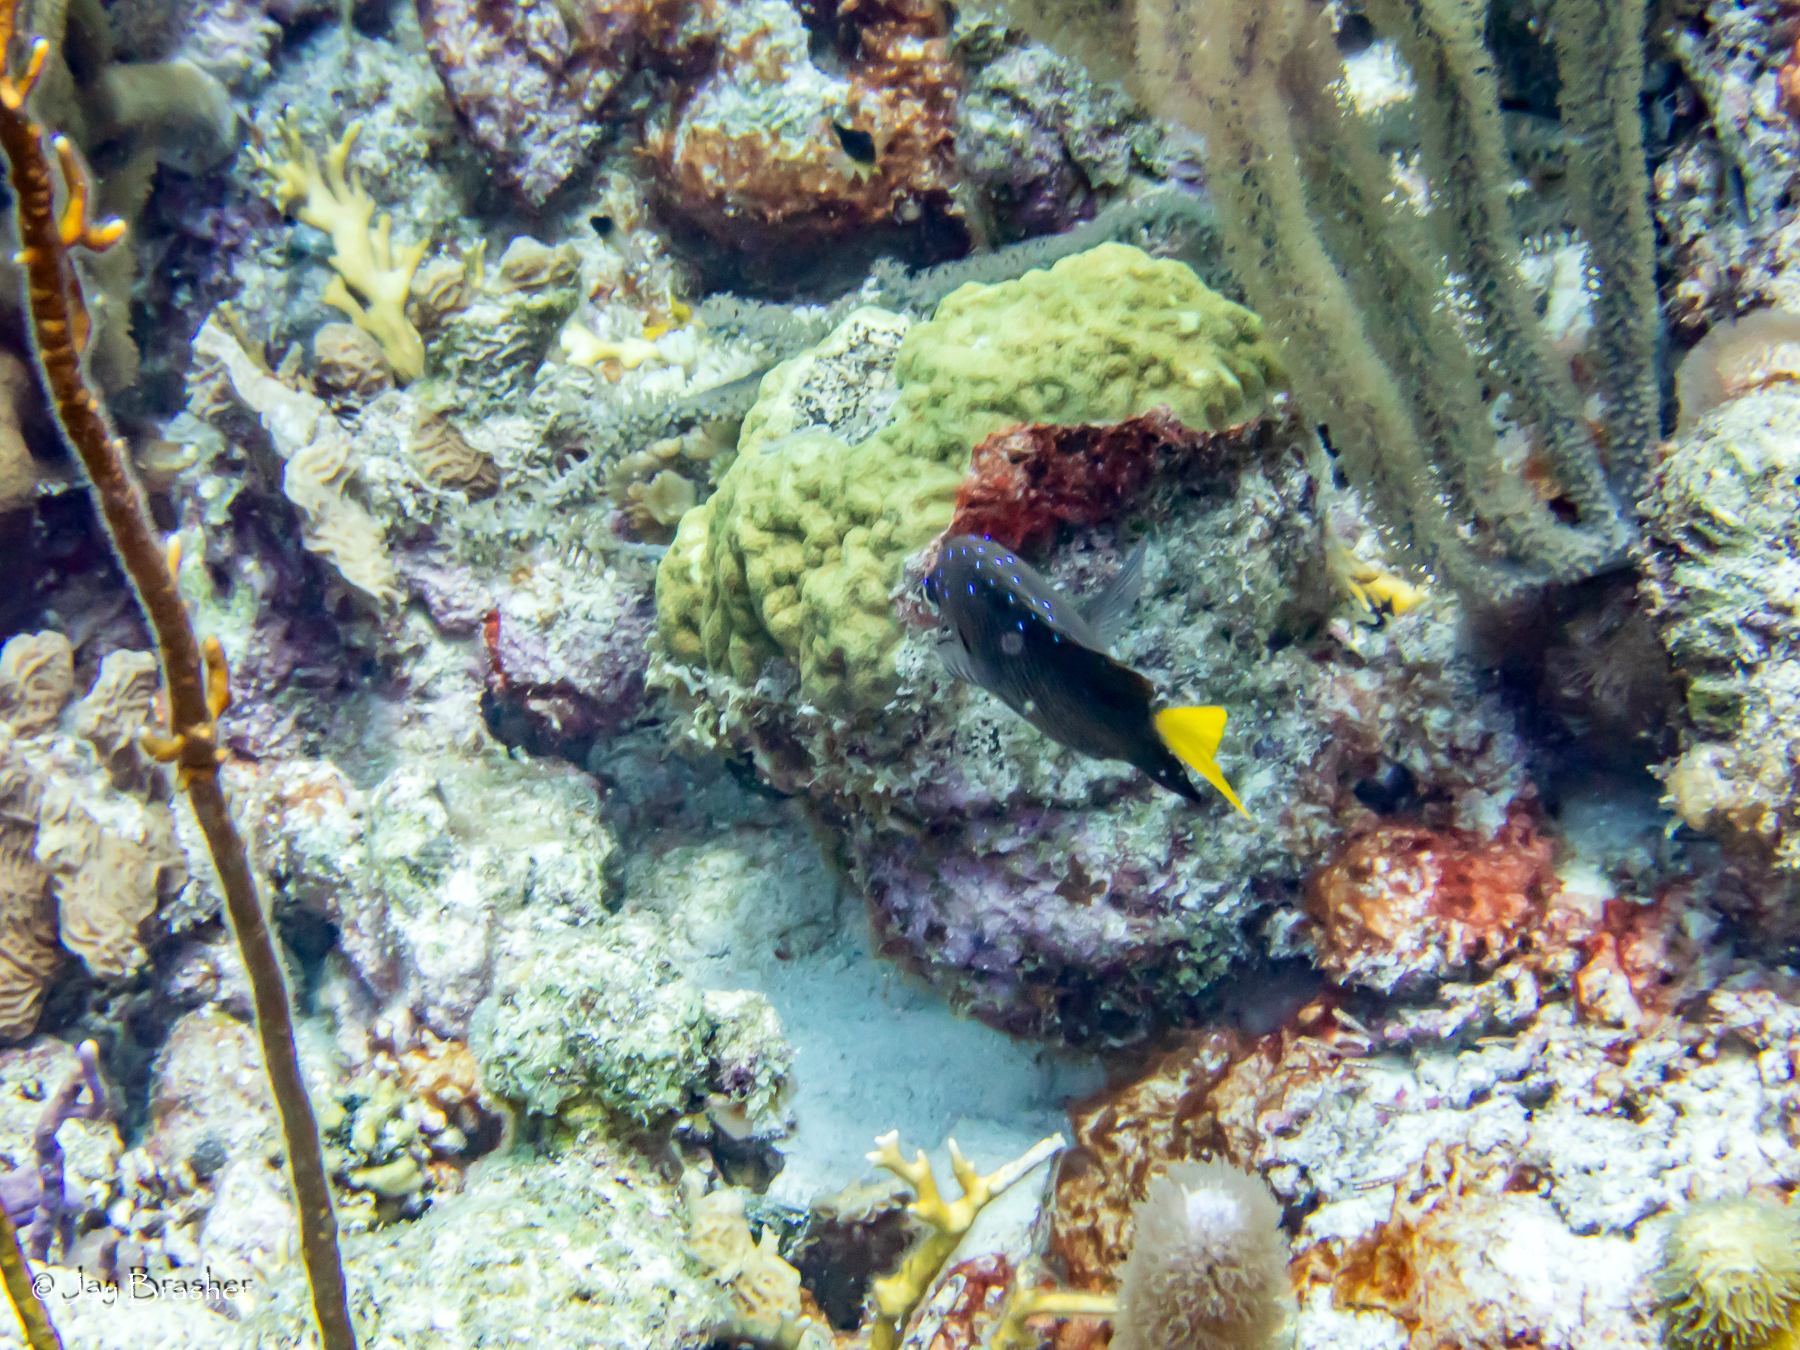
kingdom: Animalia
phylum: Chordata
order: Perciformes
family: Pomacentridae
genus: Microspathodon
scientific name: Microspathodon chrysurus
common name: Yellowtail damselfish
